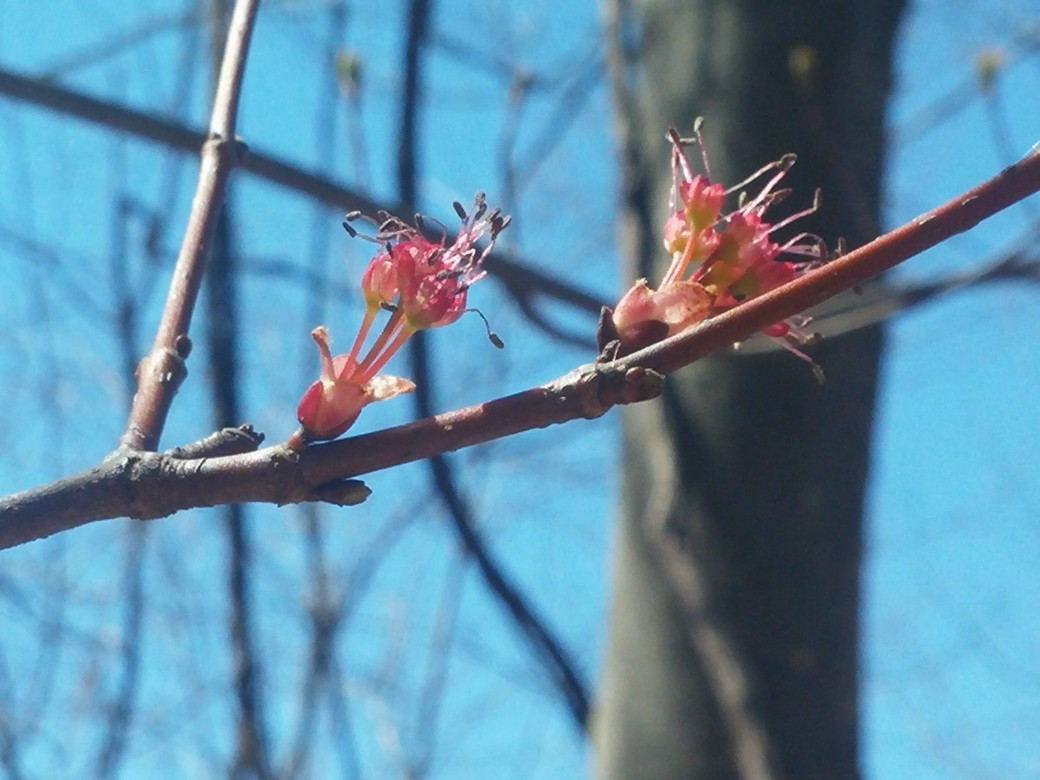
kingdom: Plantae
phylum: Tracheophyta
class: Magnoliopsida
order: Sapindales
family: Sapindaceae
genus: Acer
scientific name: Acer rubrum
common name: Red maple
